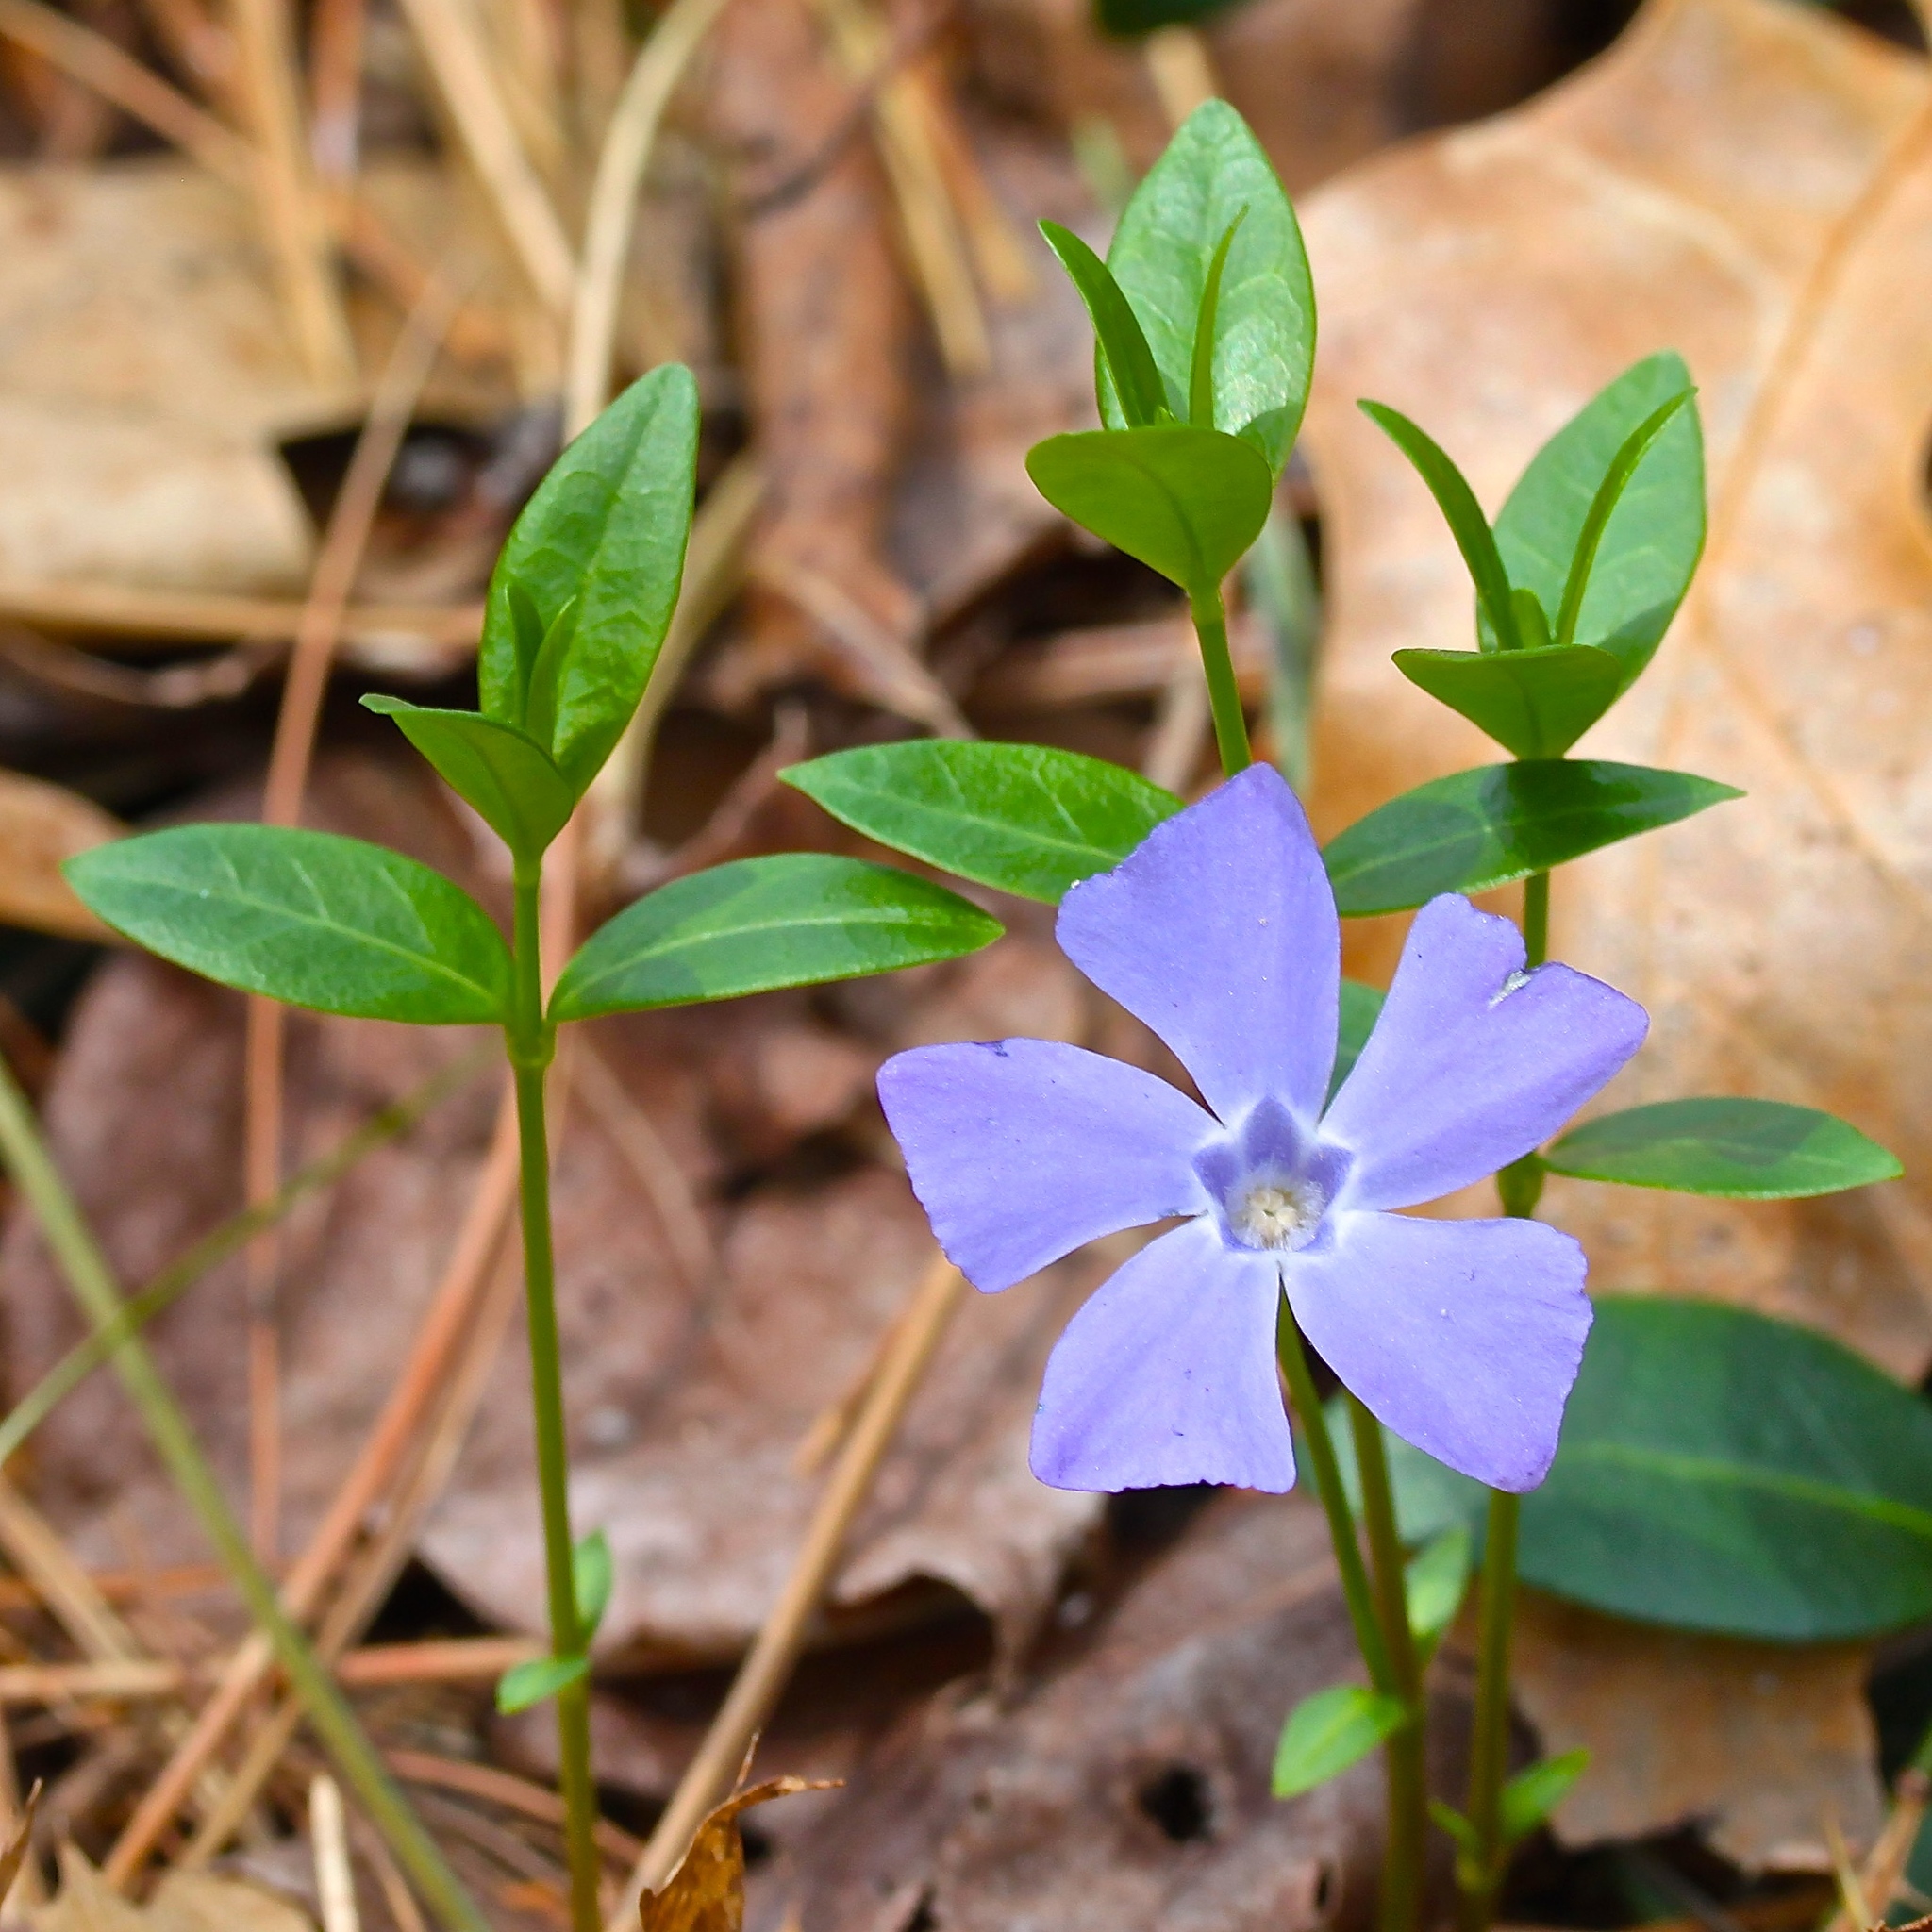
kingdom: Plantae
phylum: Tracheophyta
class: Magnoliopsida
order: Gentianales
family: Apocynaceae
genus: Vinca
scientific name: Vinca minor
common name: Lesser periwinkle
